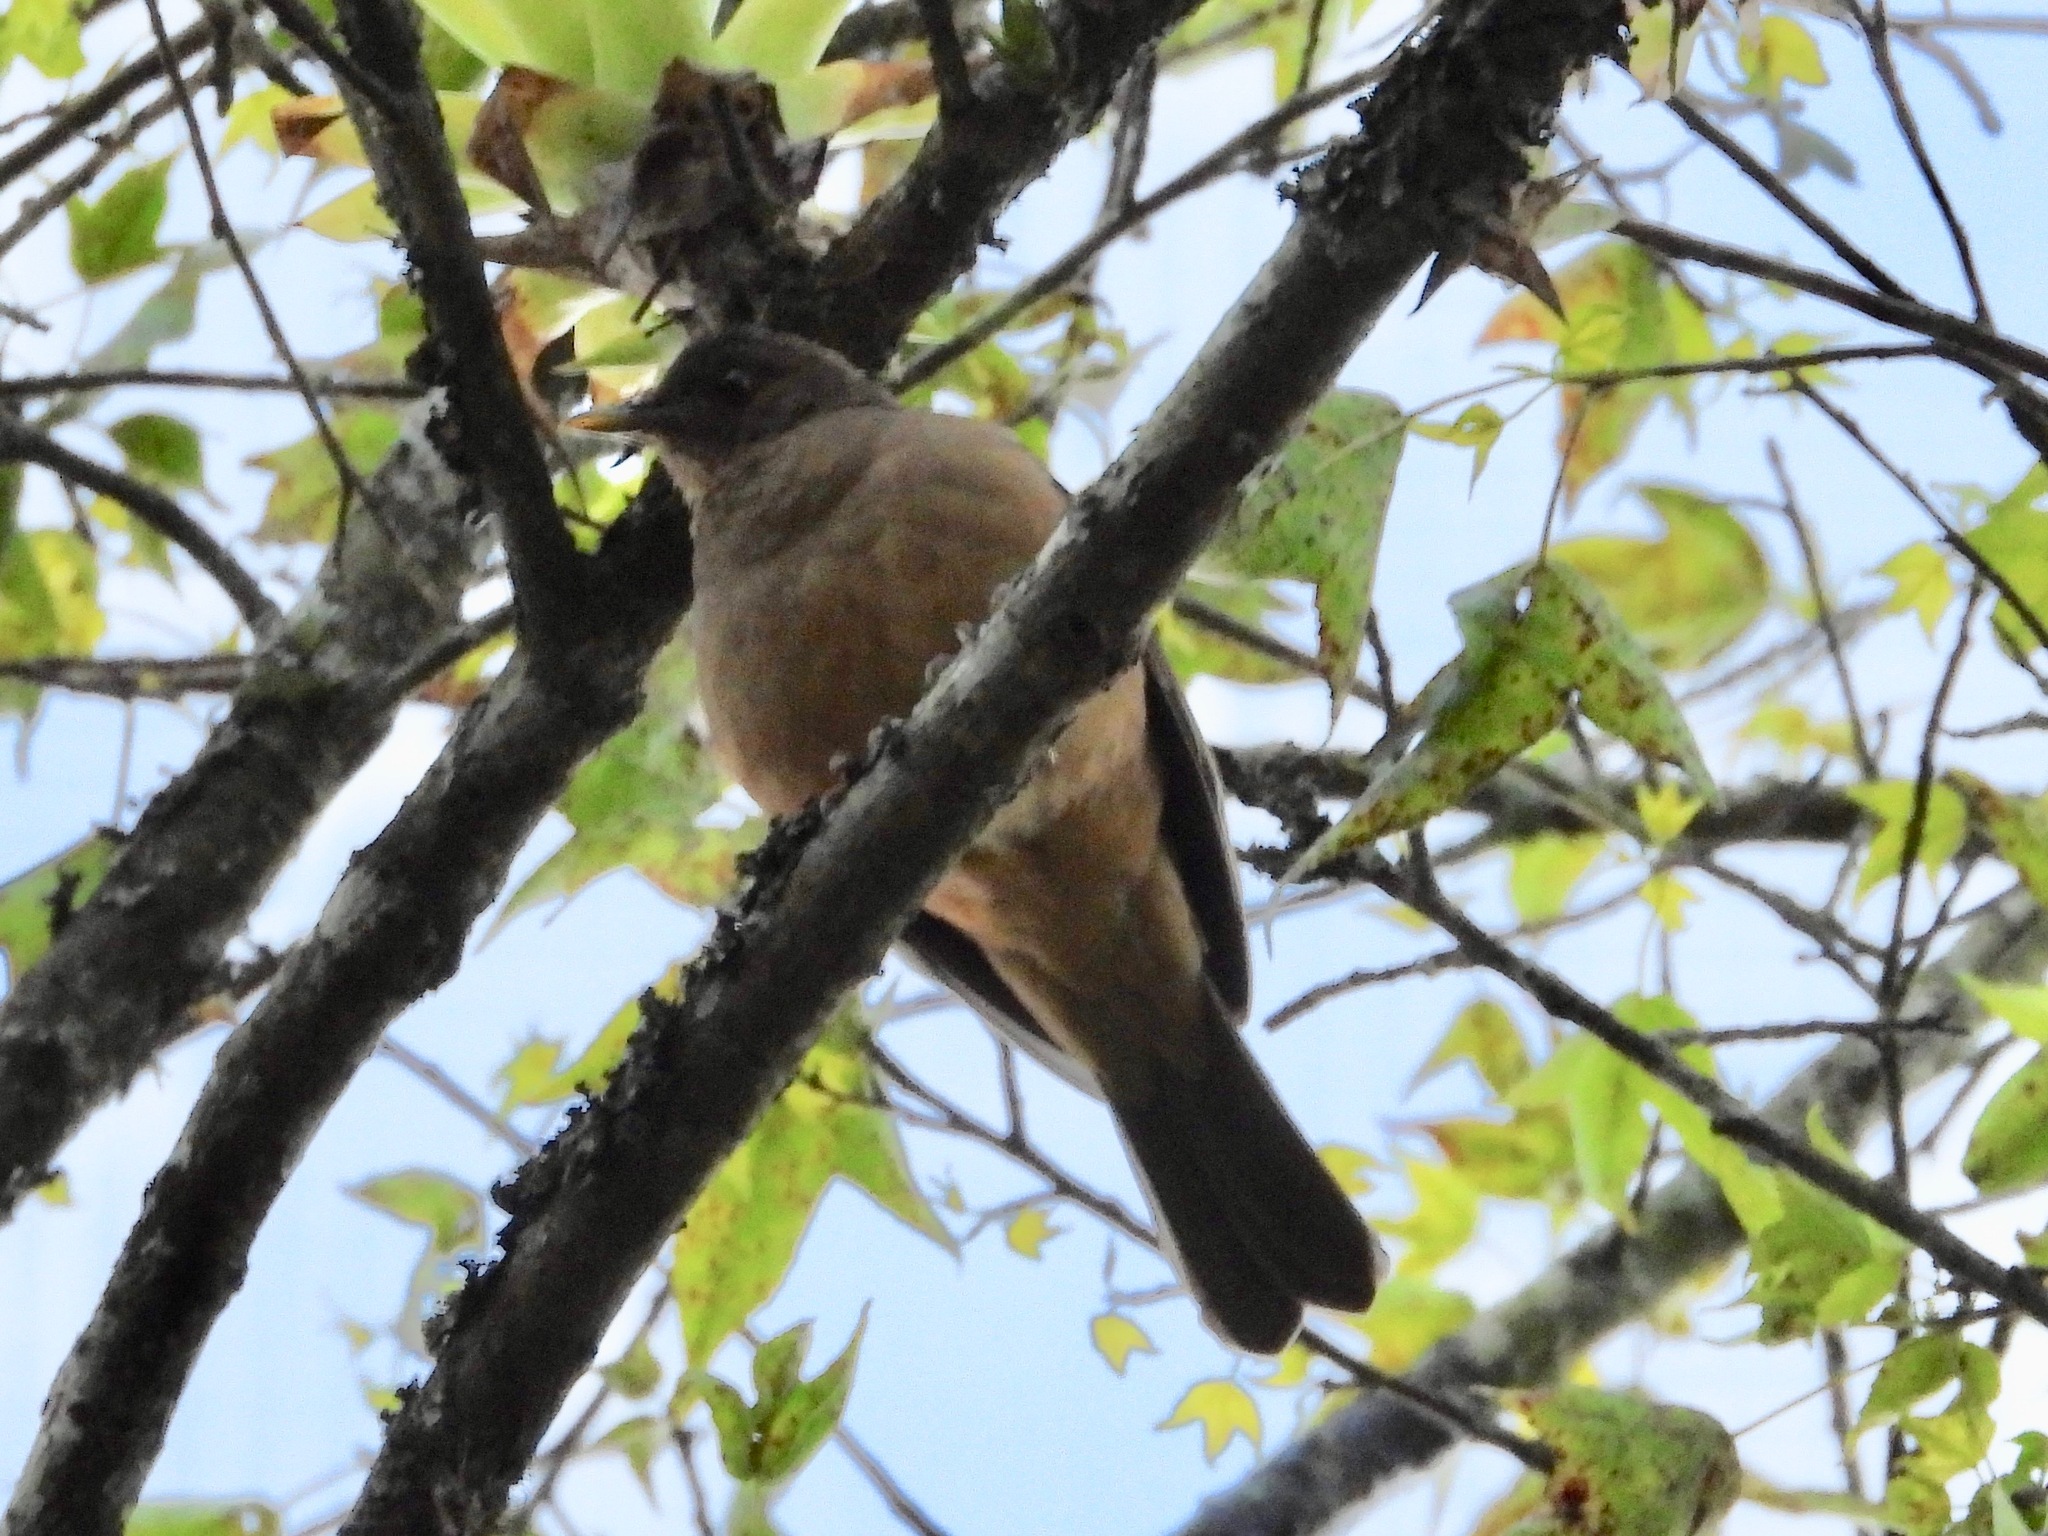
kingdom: Animalia
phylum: Chordata
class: Aves
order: Passeriformes
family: Turdidae
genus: Turdus
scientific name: Turdus grayi
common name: Clay-colored thrush
